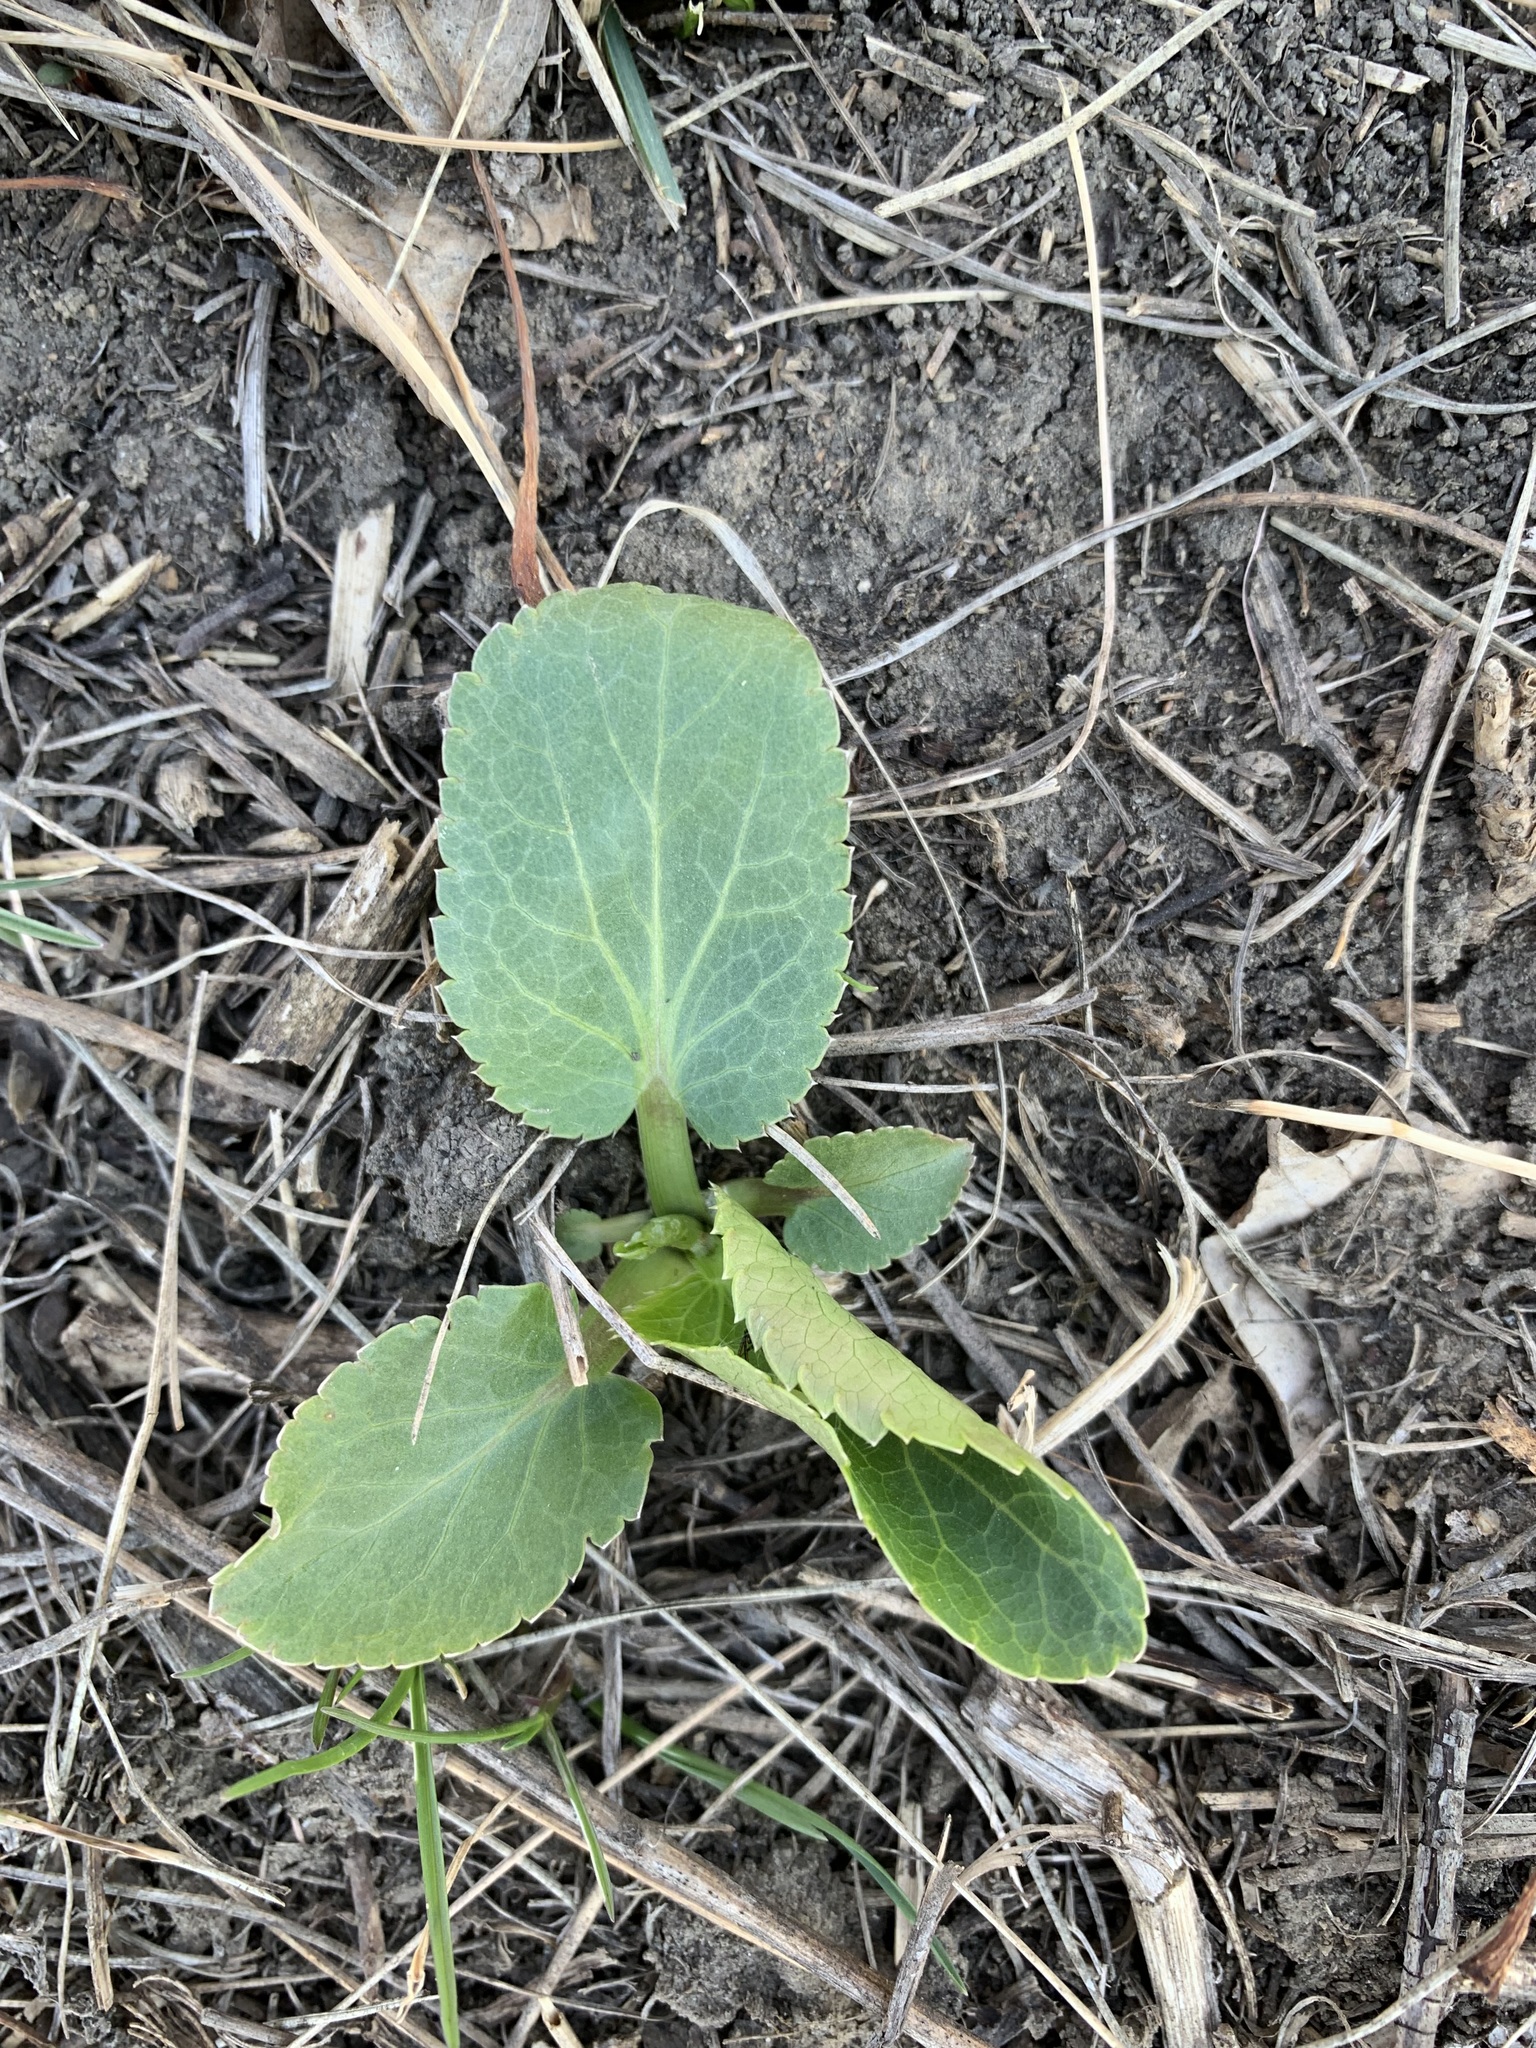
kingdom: Plantae
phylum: Tracheophyta
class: Magnoliopsida
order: Apiales
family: Apiaceae
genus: Eryngium
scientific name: Eryngium planum
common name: Blue eryngo
